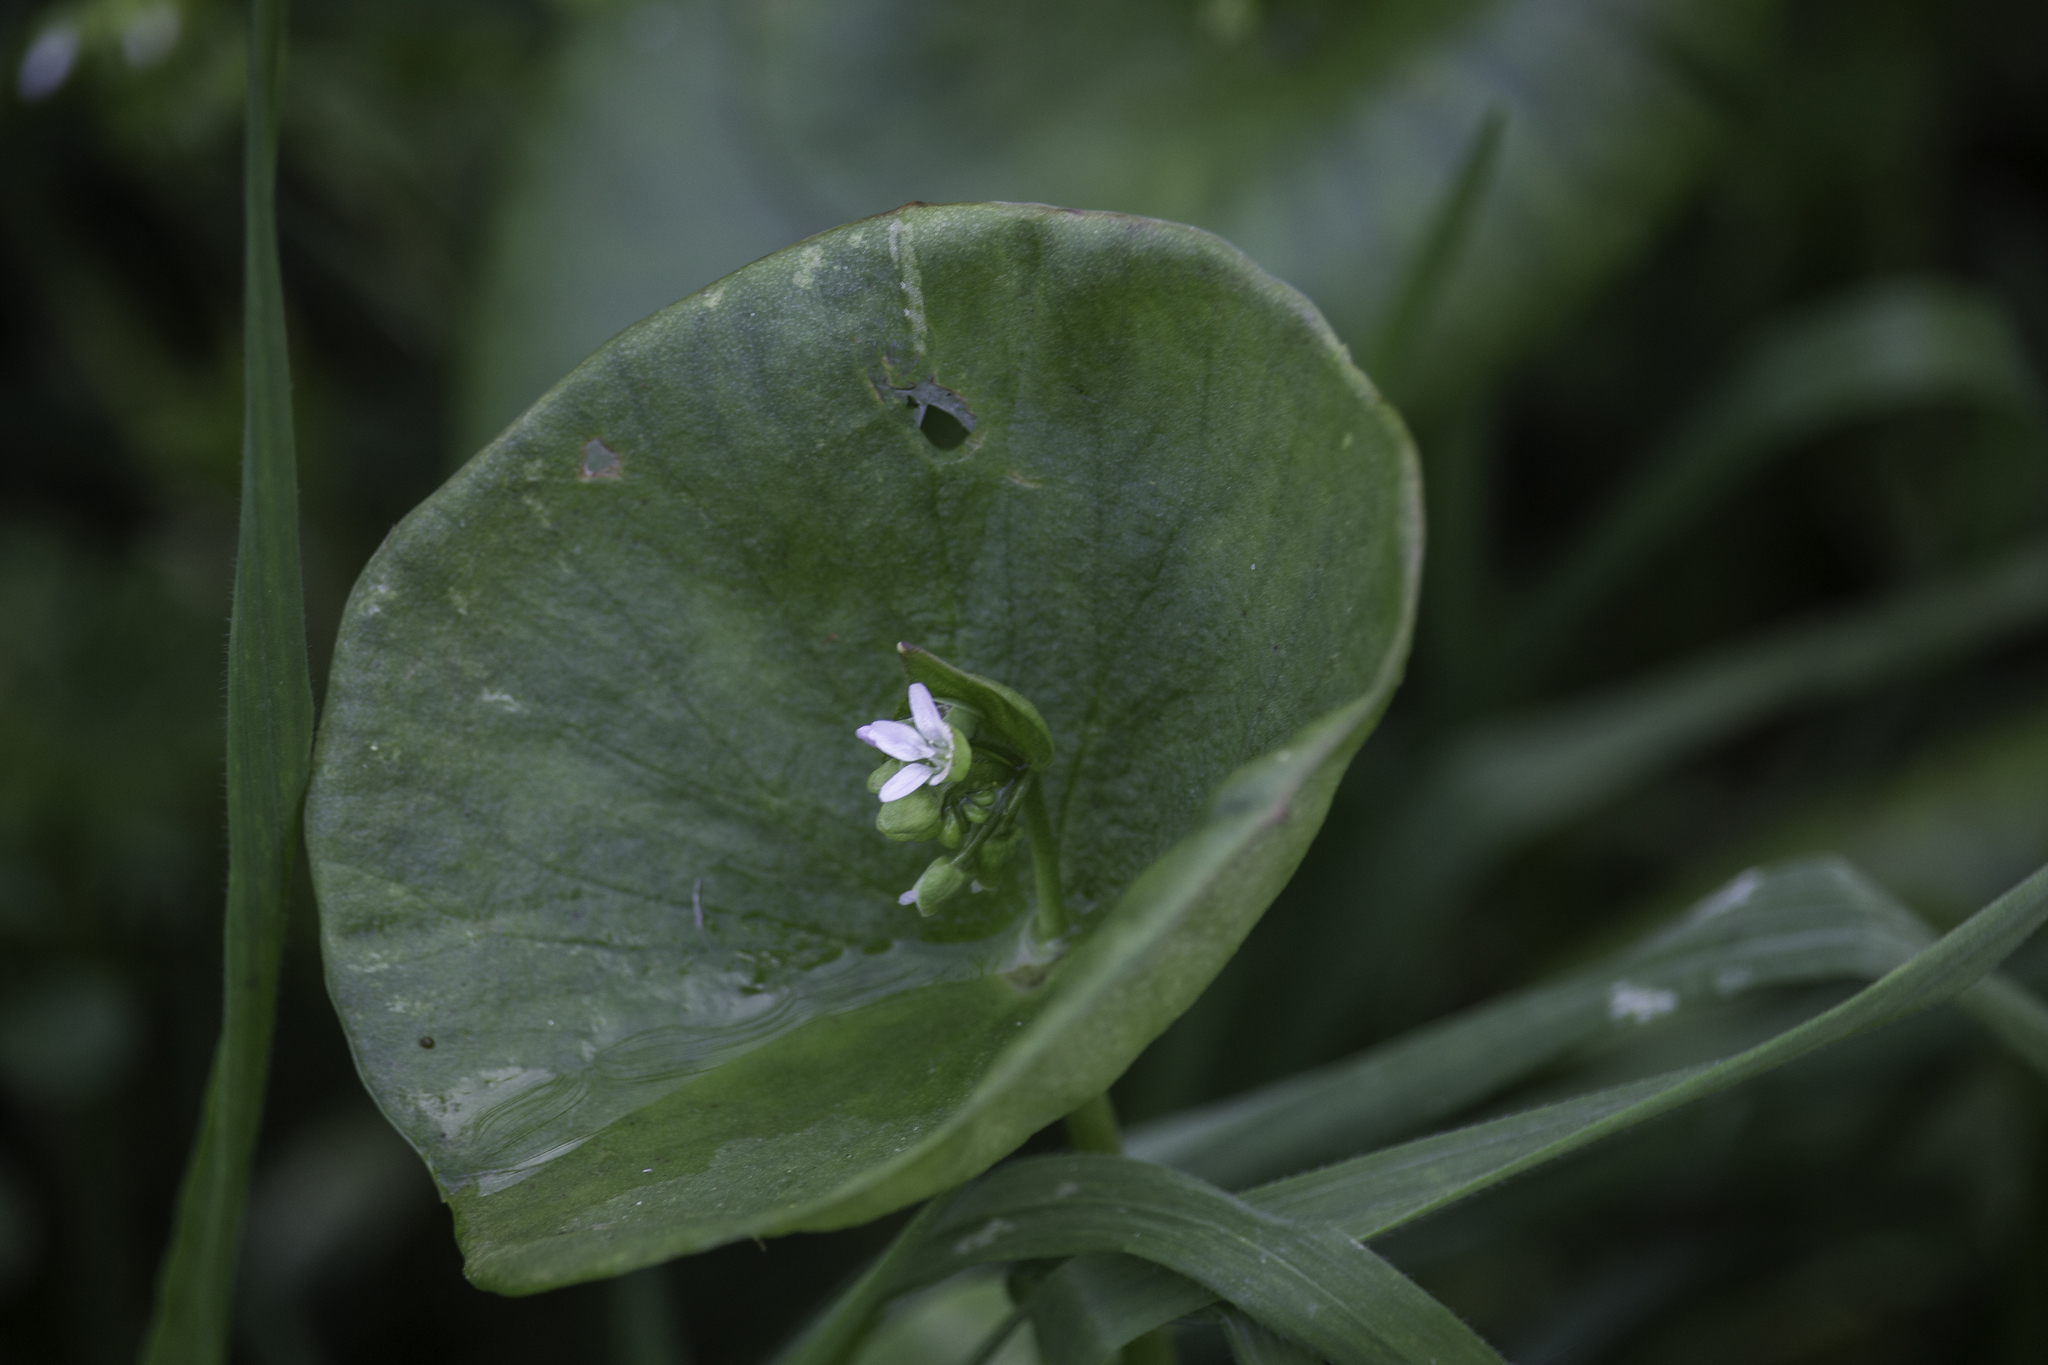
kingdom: Plantae
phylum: Tracheophyta
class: Magnoliopsida
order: Caryophyllales
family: Montiaceae
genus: Claytonia
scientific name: Claytonia perfoliata
